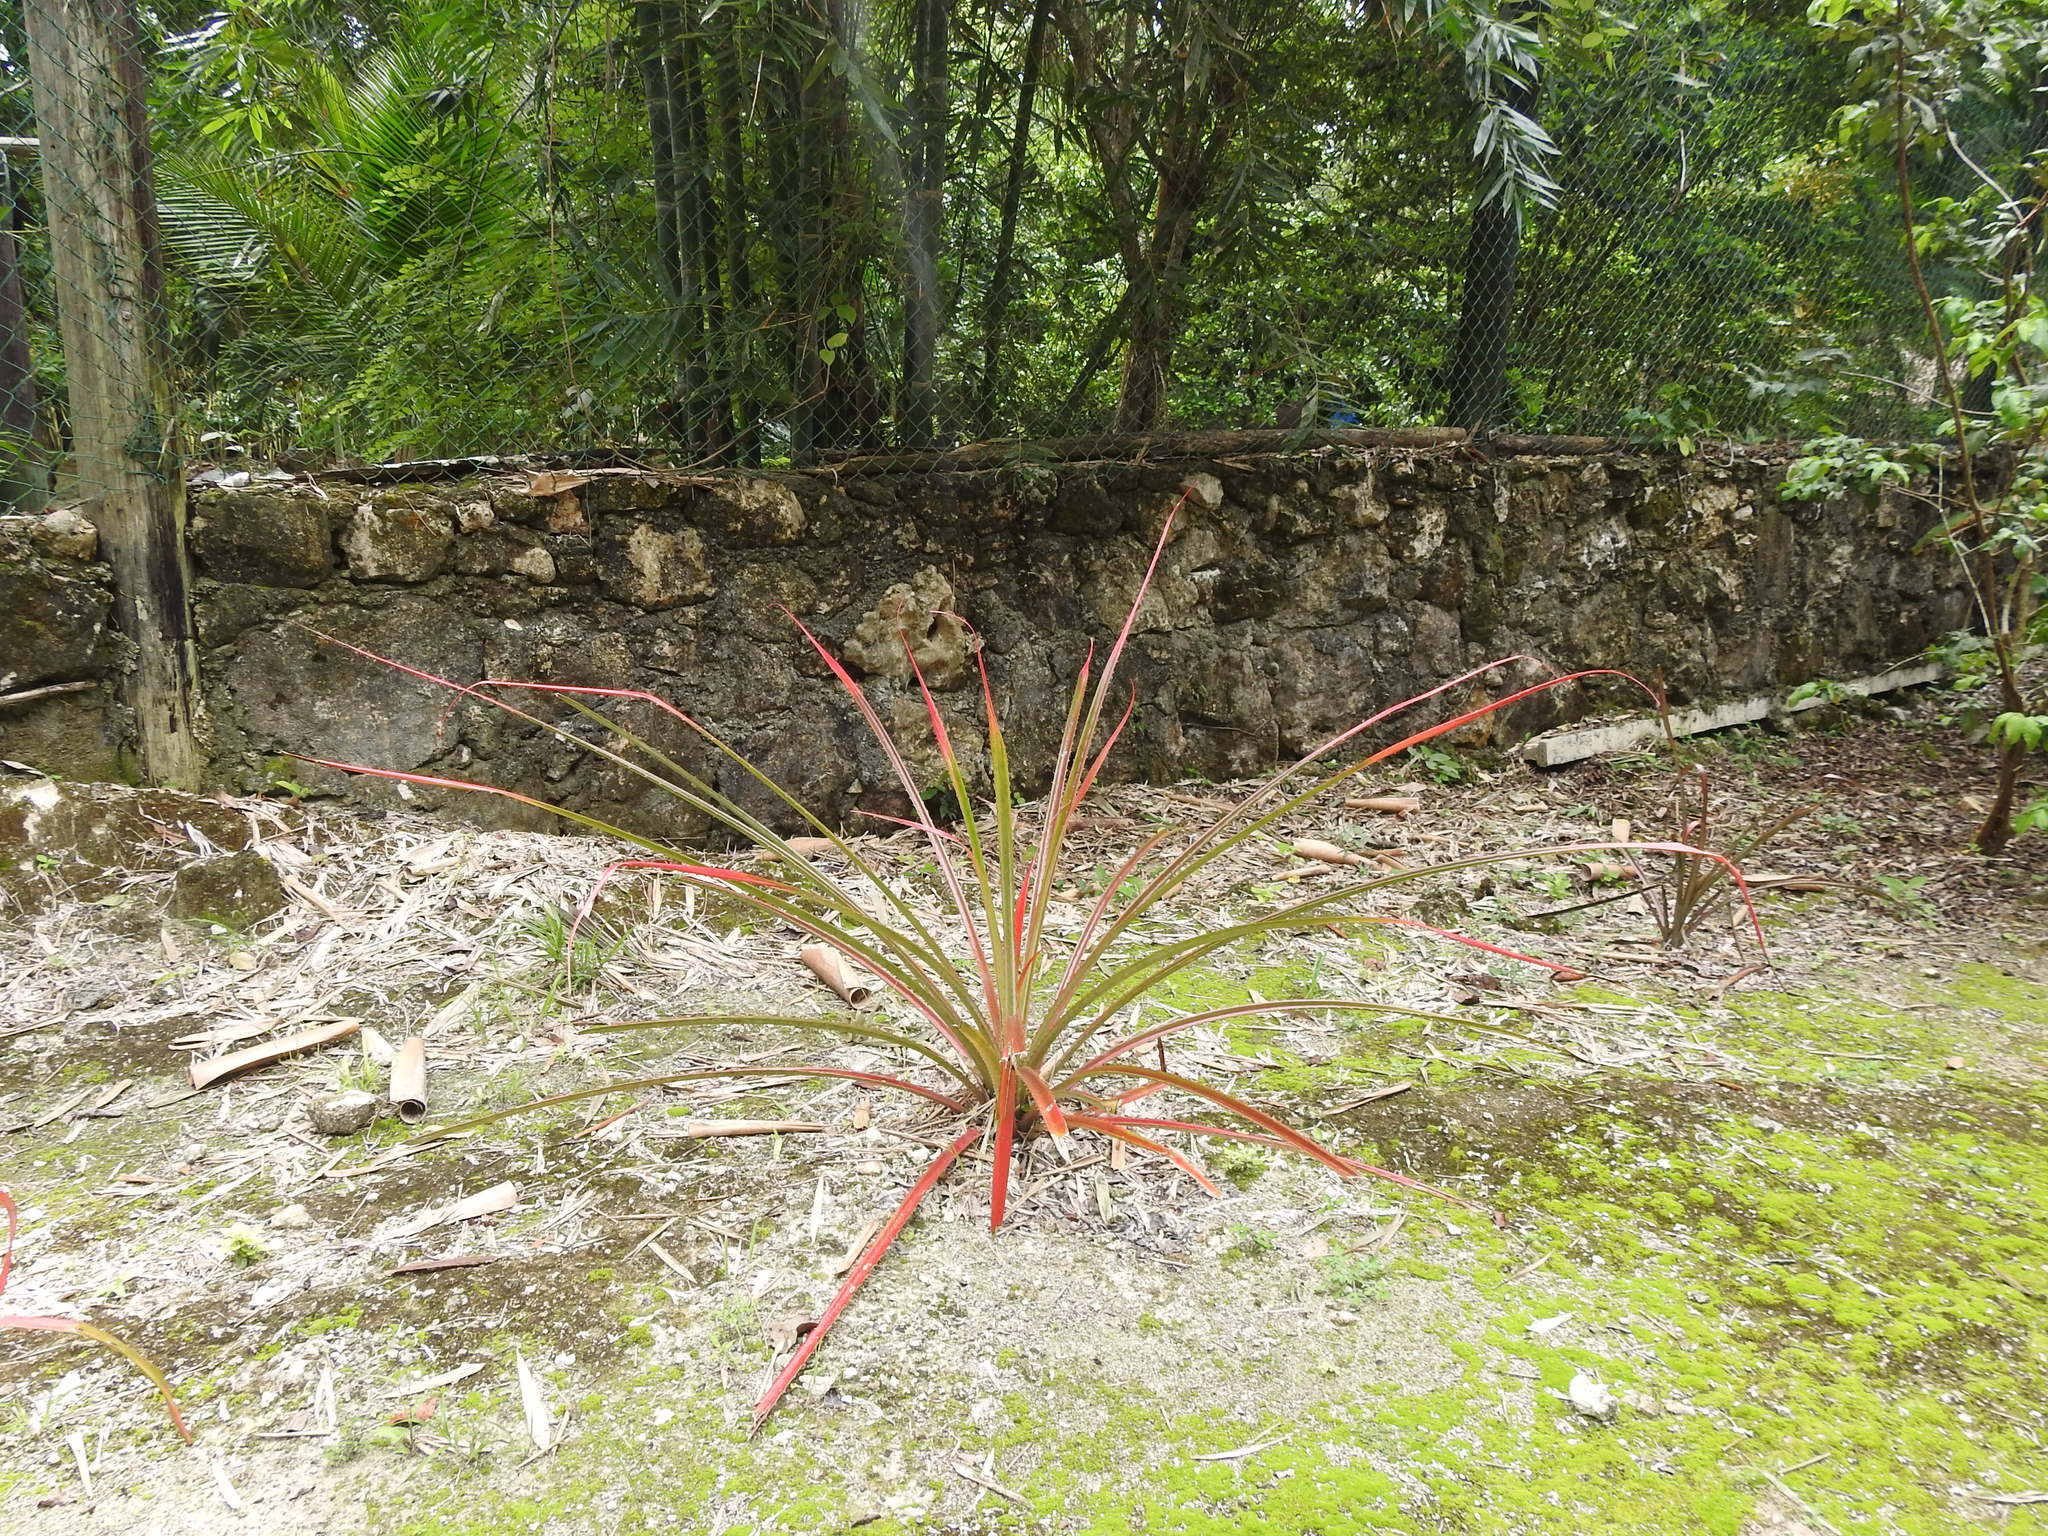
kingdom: Plantae
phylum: Tracheophyta
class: Liliopsida
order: Poales
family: Bromeliaceae
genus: Bromelia
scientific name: Bromelia pinguin
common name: Pinguin
